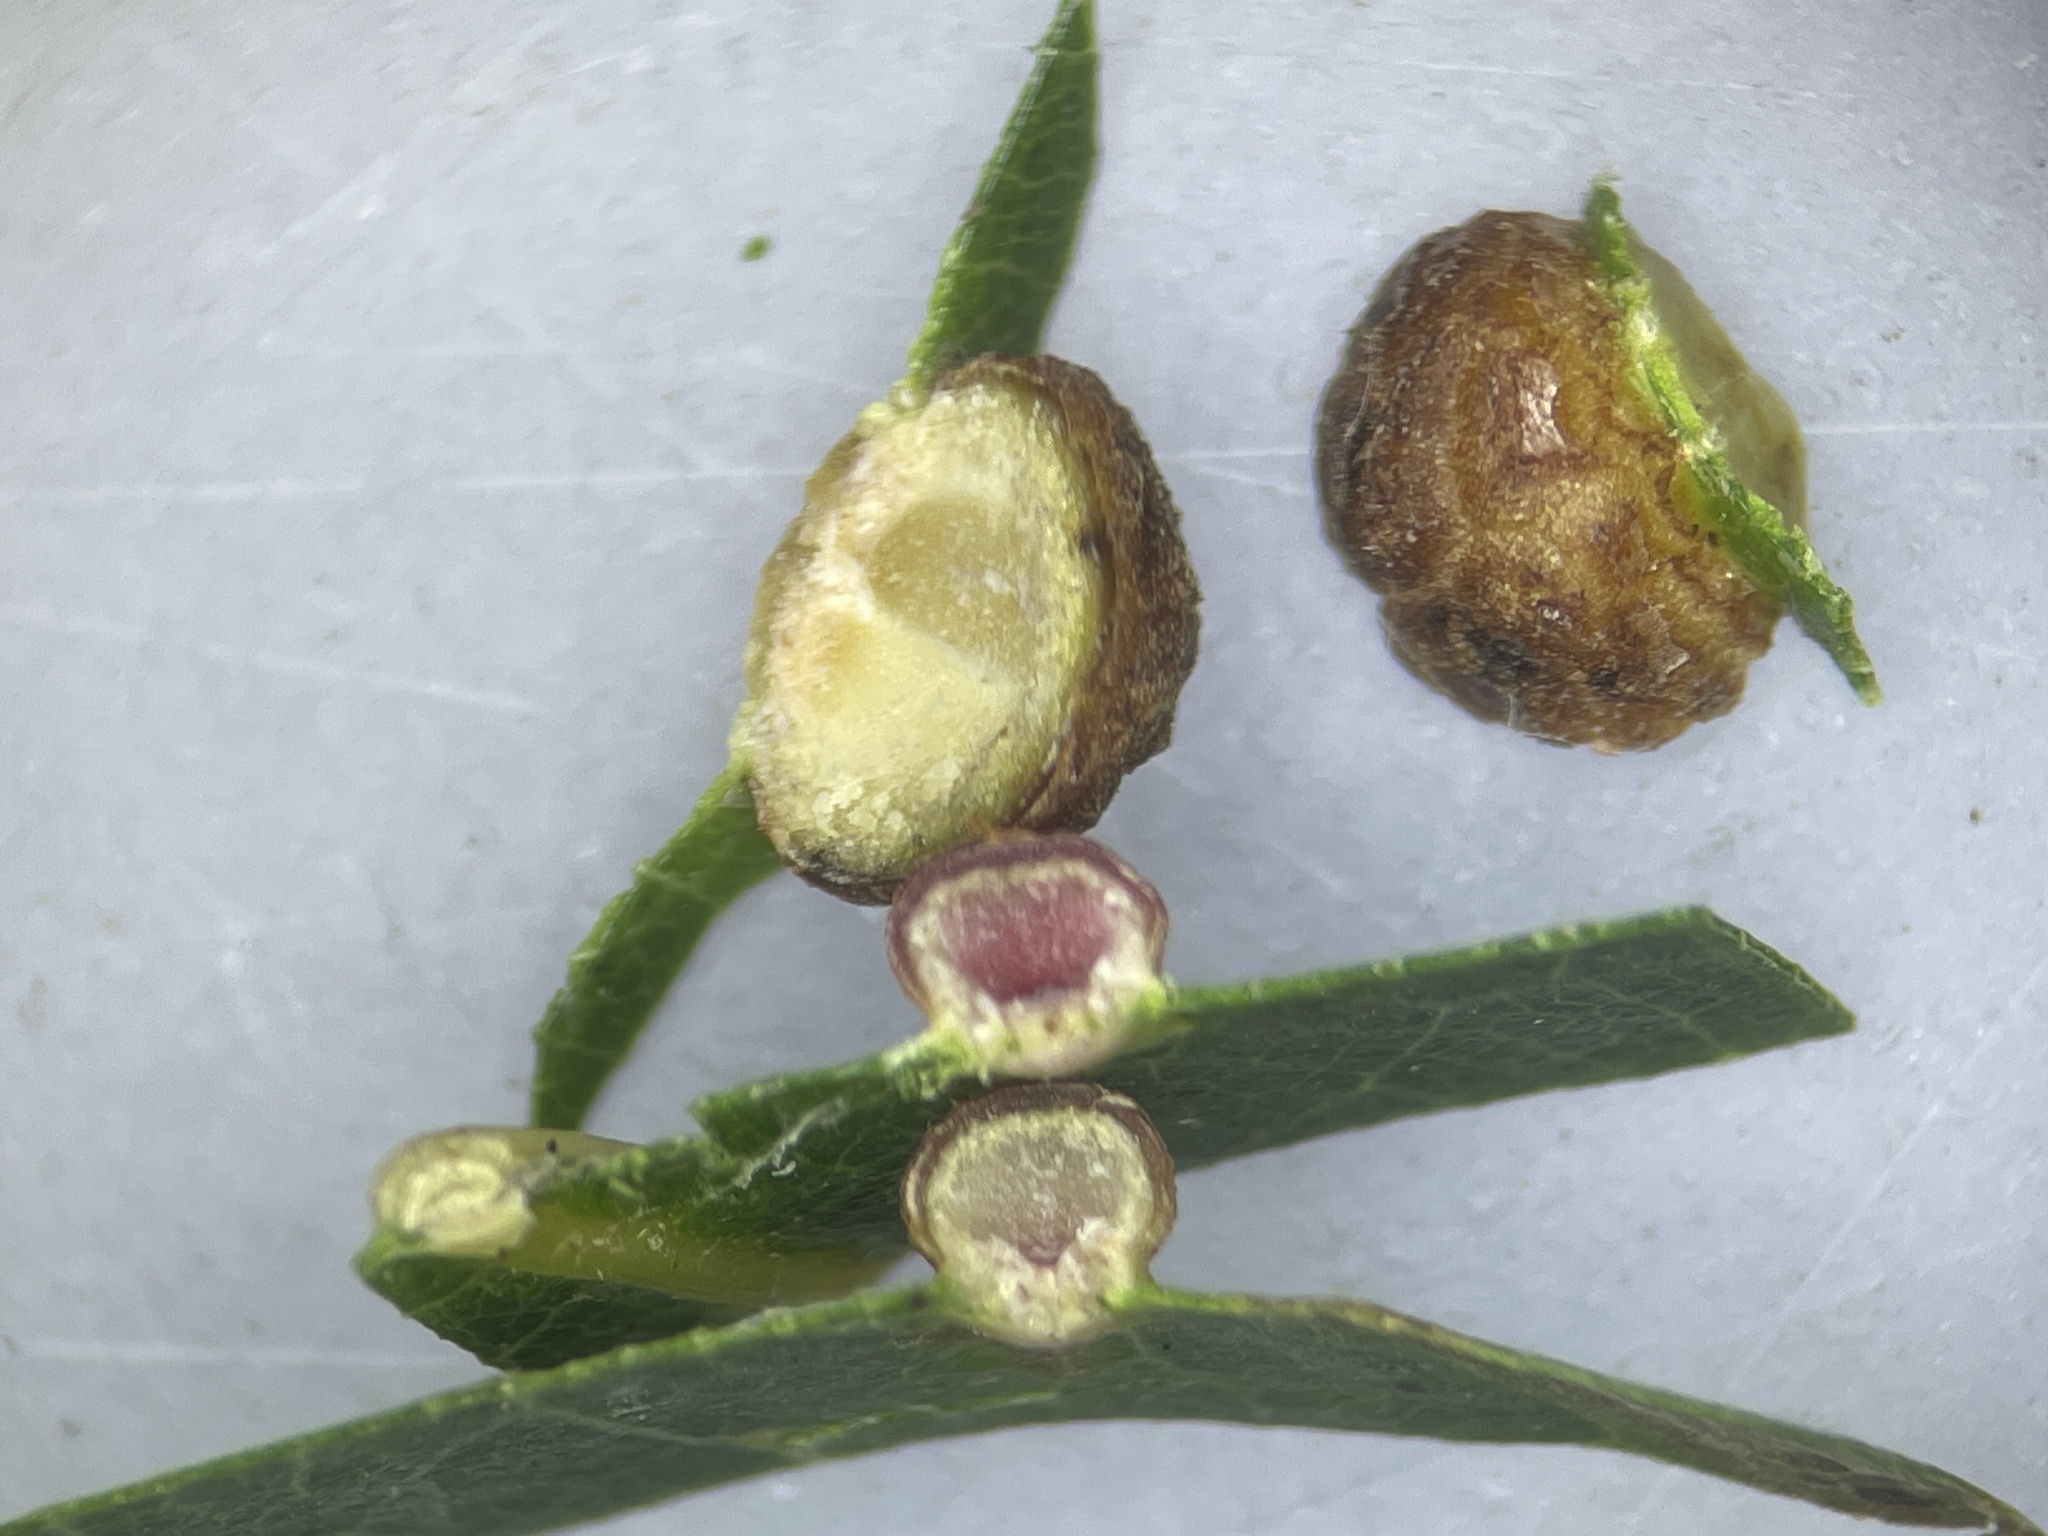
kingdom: Animalia
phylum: Arthropoda
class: Insecta
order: Diptera
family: Cecidomyiidae
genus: Polystepha
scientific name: Polystepha globosa
